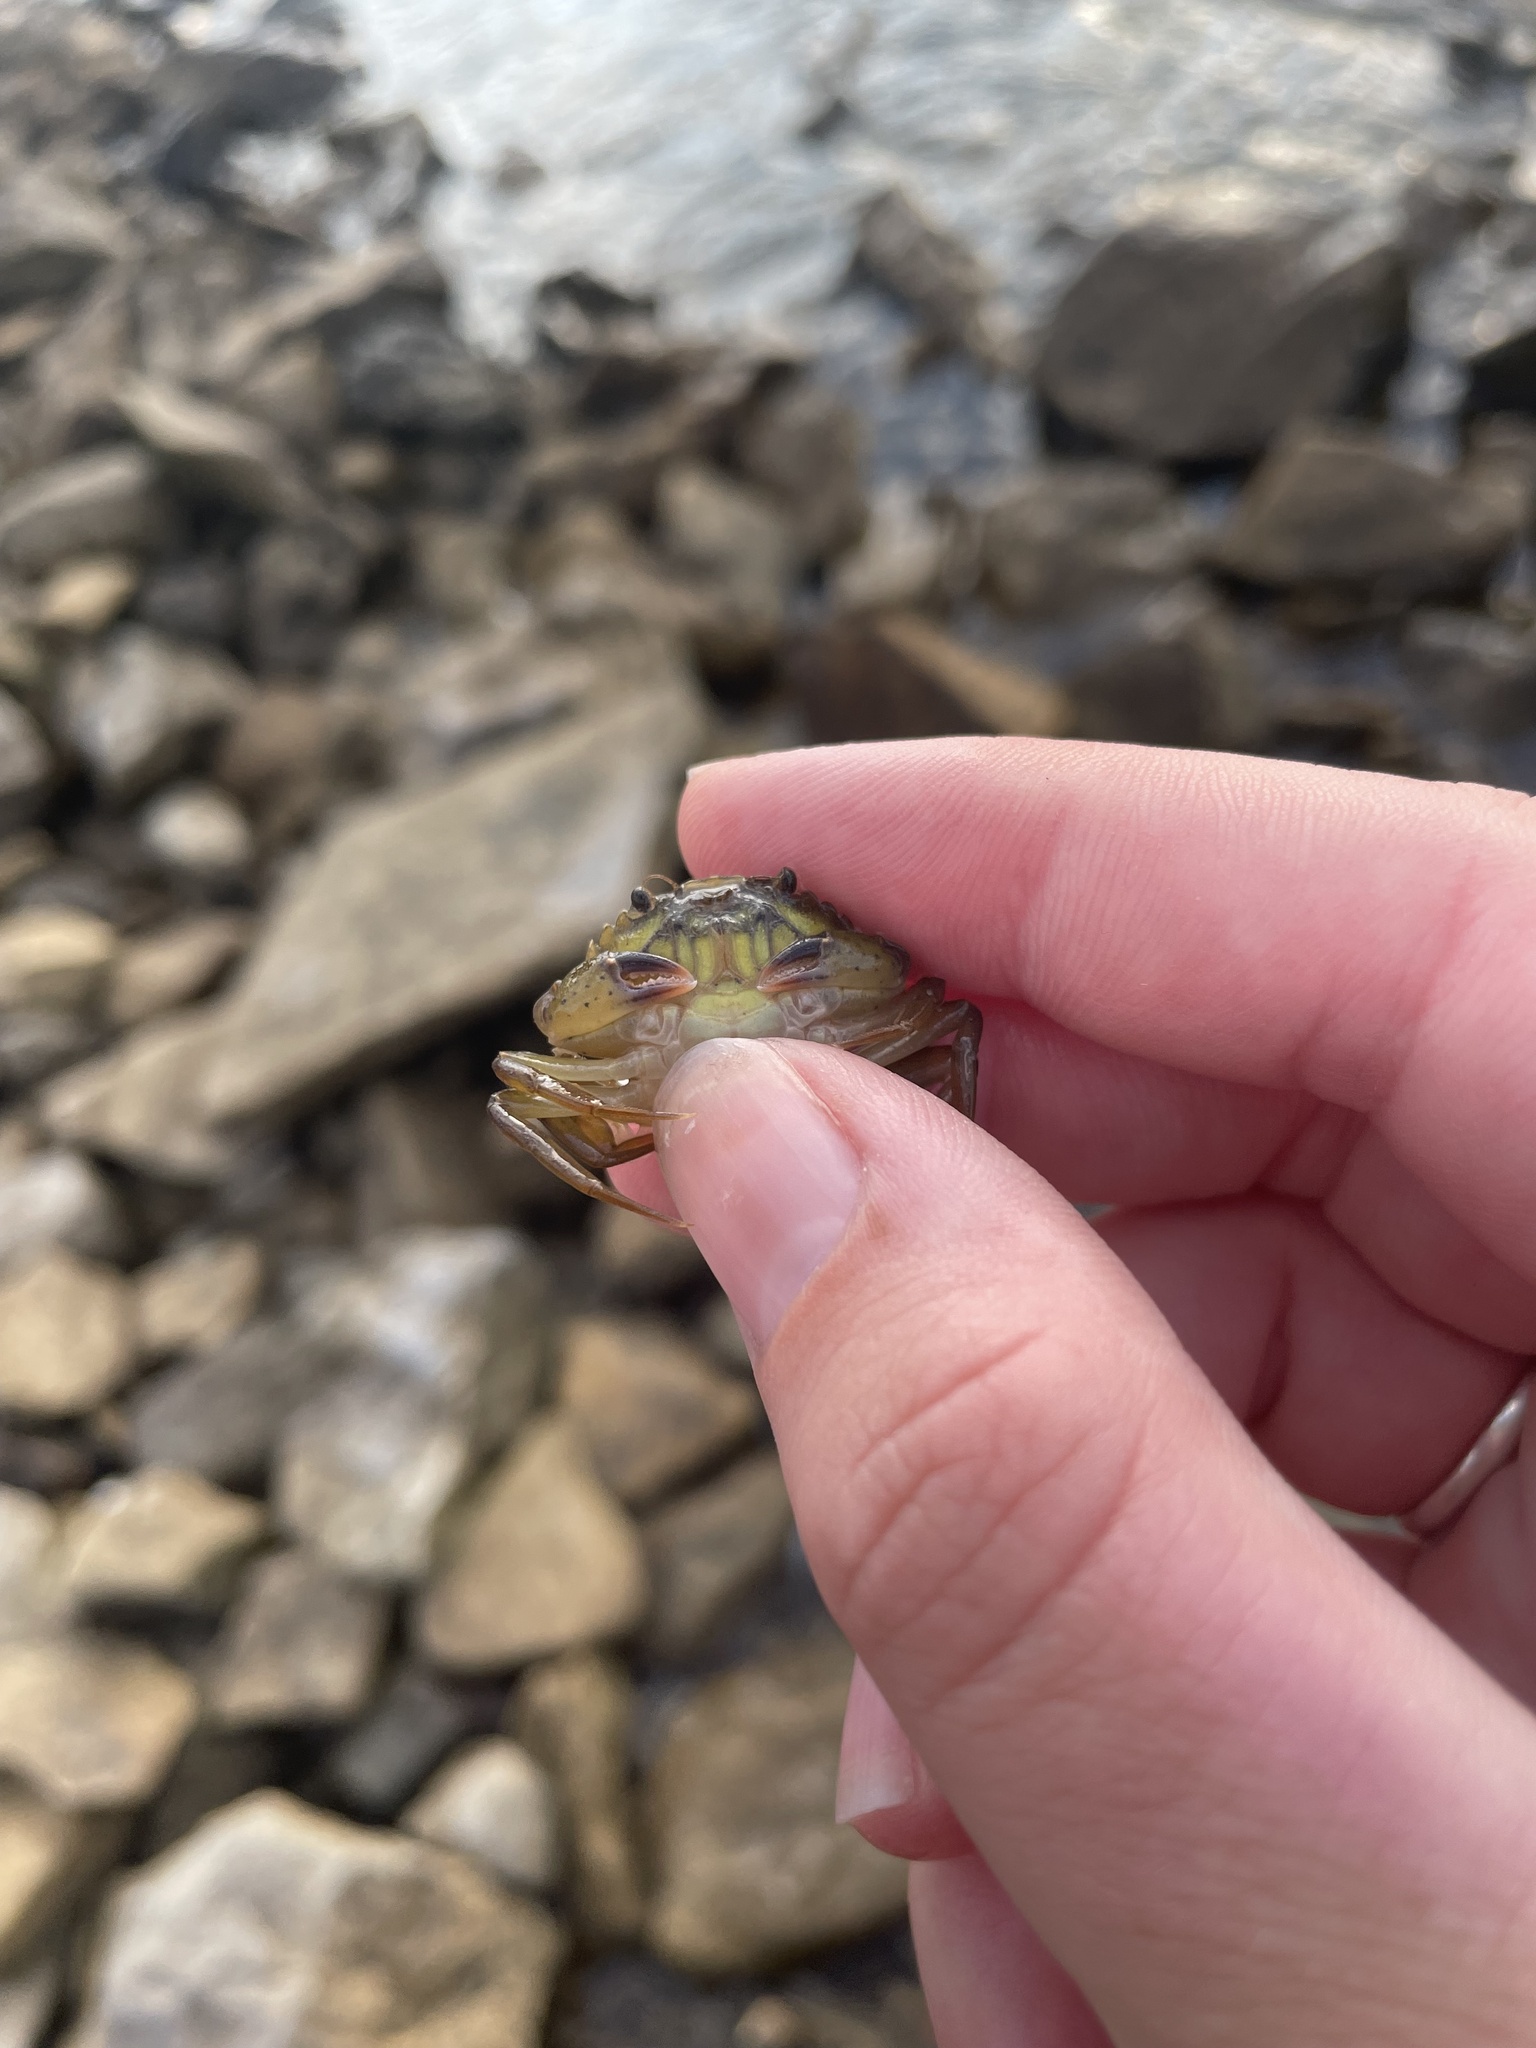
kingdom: Animalia
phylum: Arthropoda
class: Malacostraca
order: Decapoda
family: Carcinidae
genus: Carcinus
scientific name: Carcinus maenas
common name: European green crab
